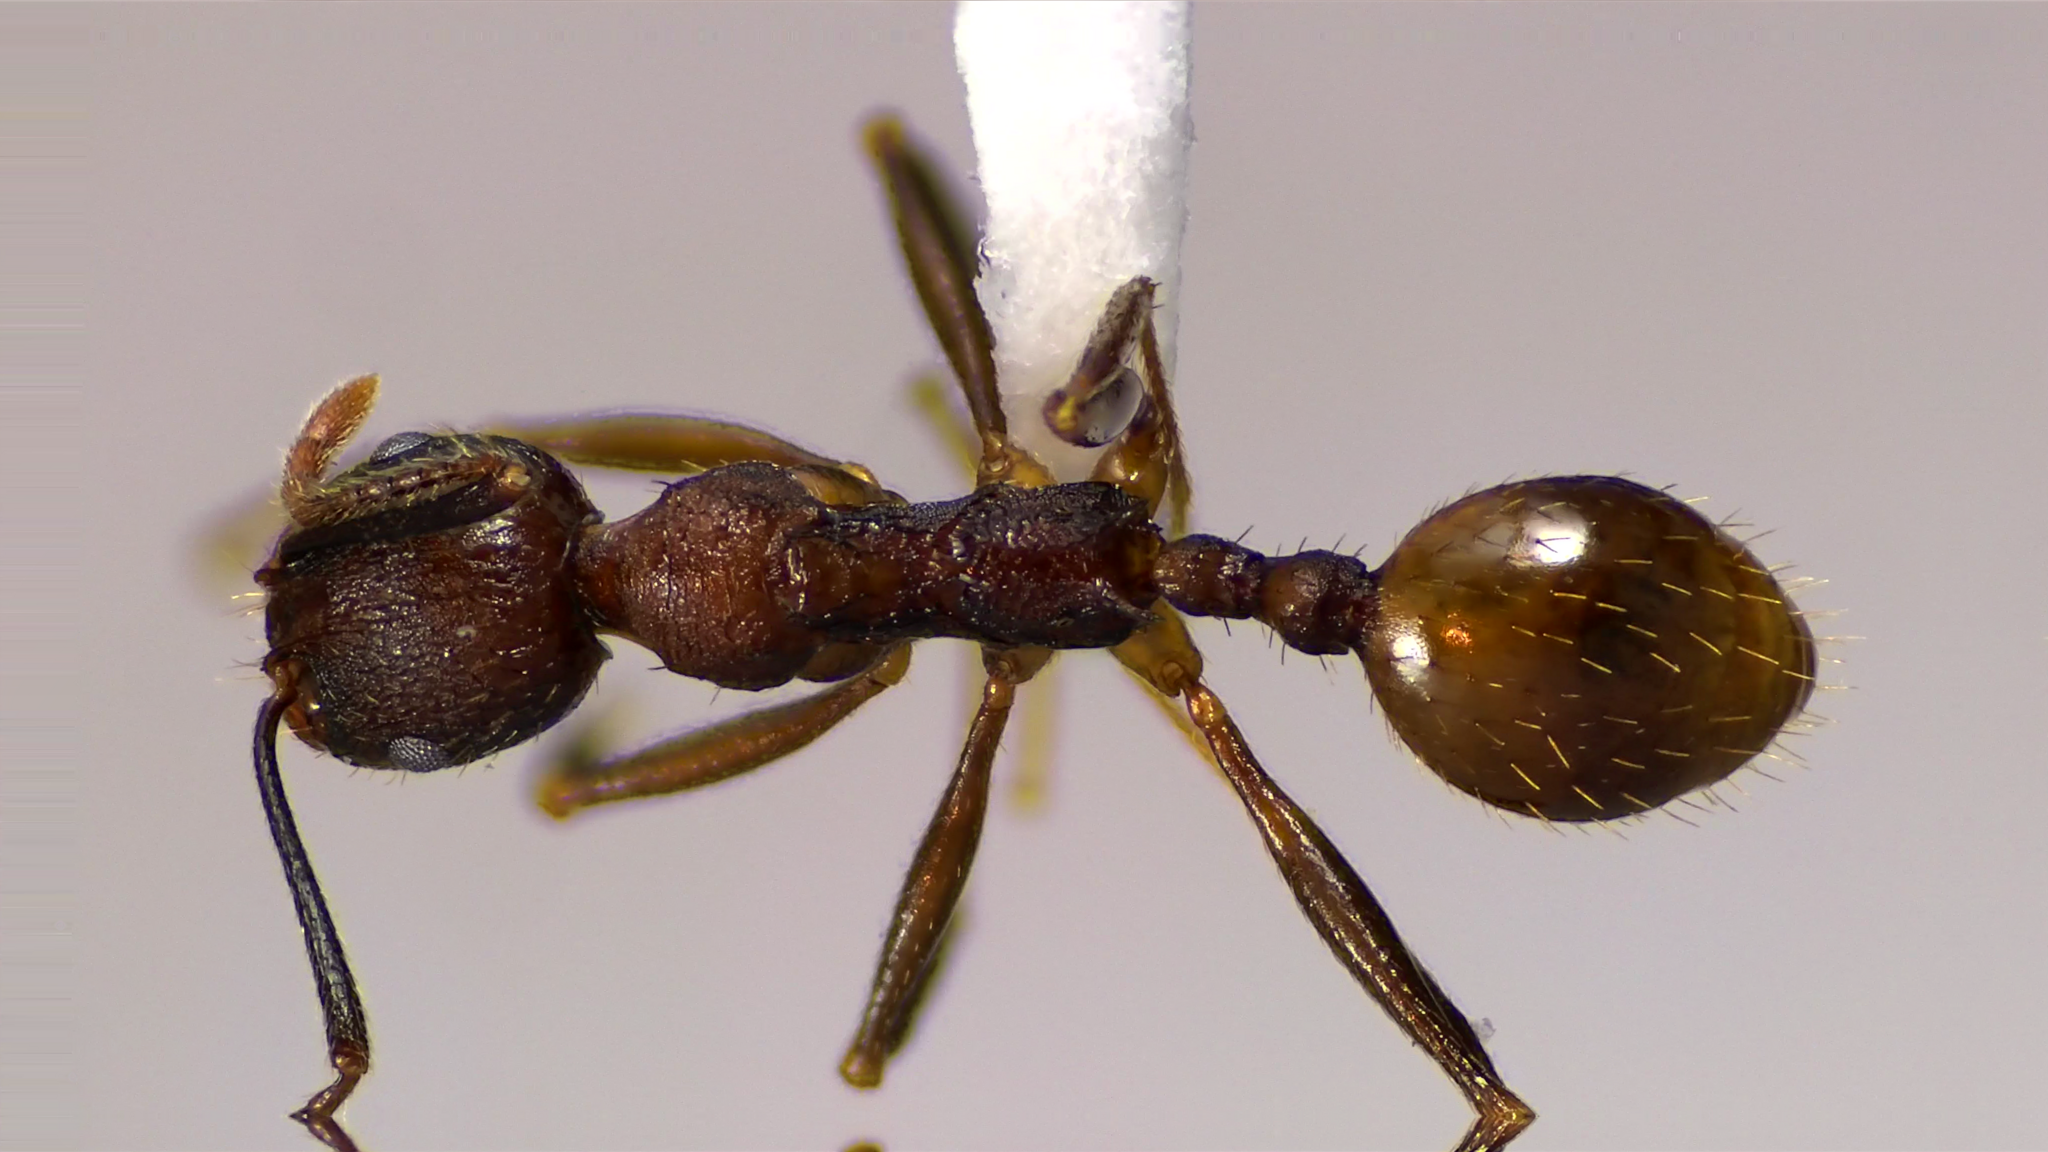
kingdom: Animalia
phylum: Arthropoda
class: Insecta
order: Hymenoptera
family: Formicidae
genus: Aphaenogaster
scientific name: Aphaenogaster fulva
